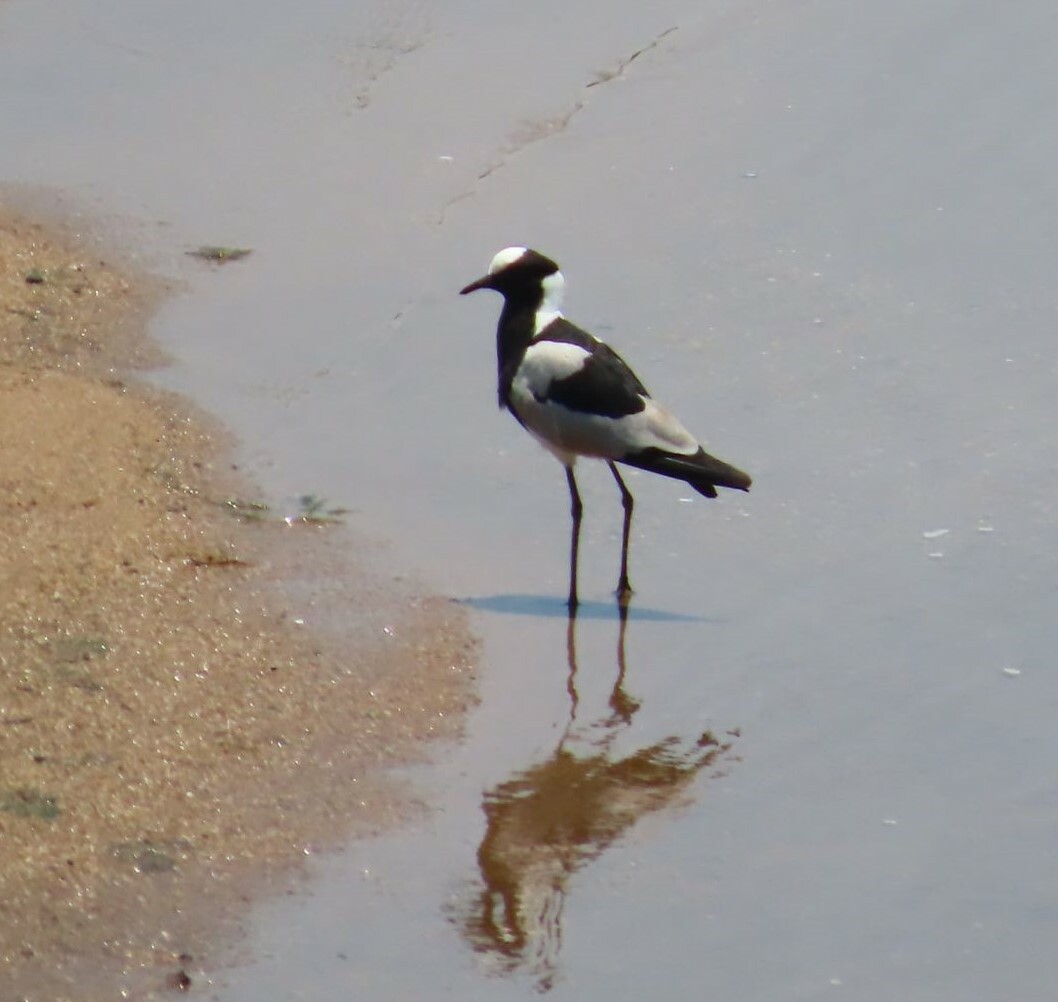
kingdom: Animalia
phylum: Chordata
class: Aves
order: Charadriiformes
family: Charadriidae
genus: Vanellus
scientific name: Vanellus armatus
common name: Blacksmith lapwing
